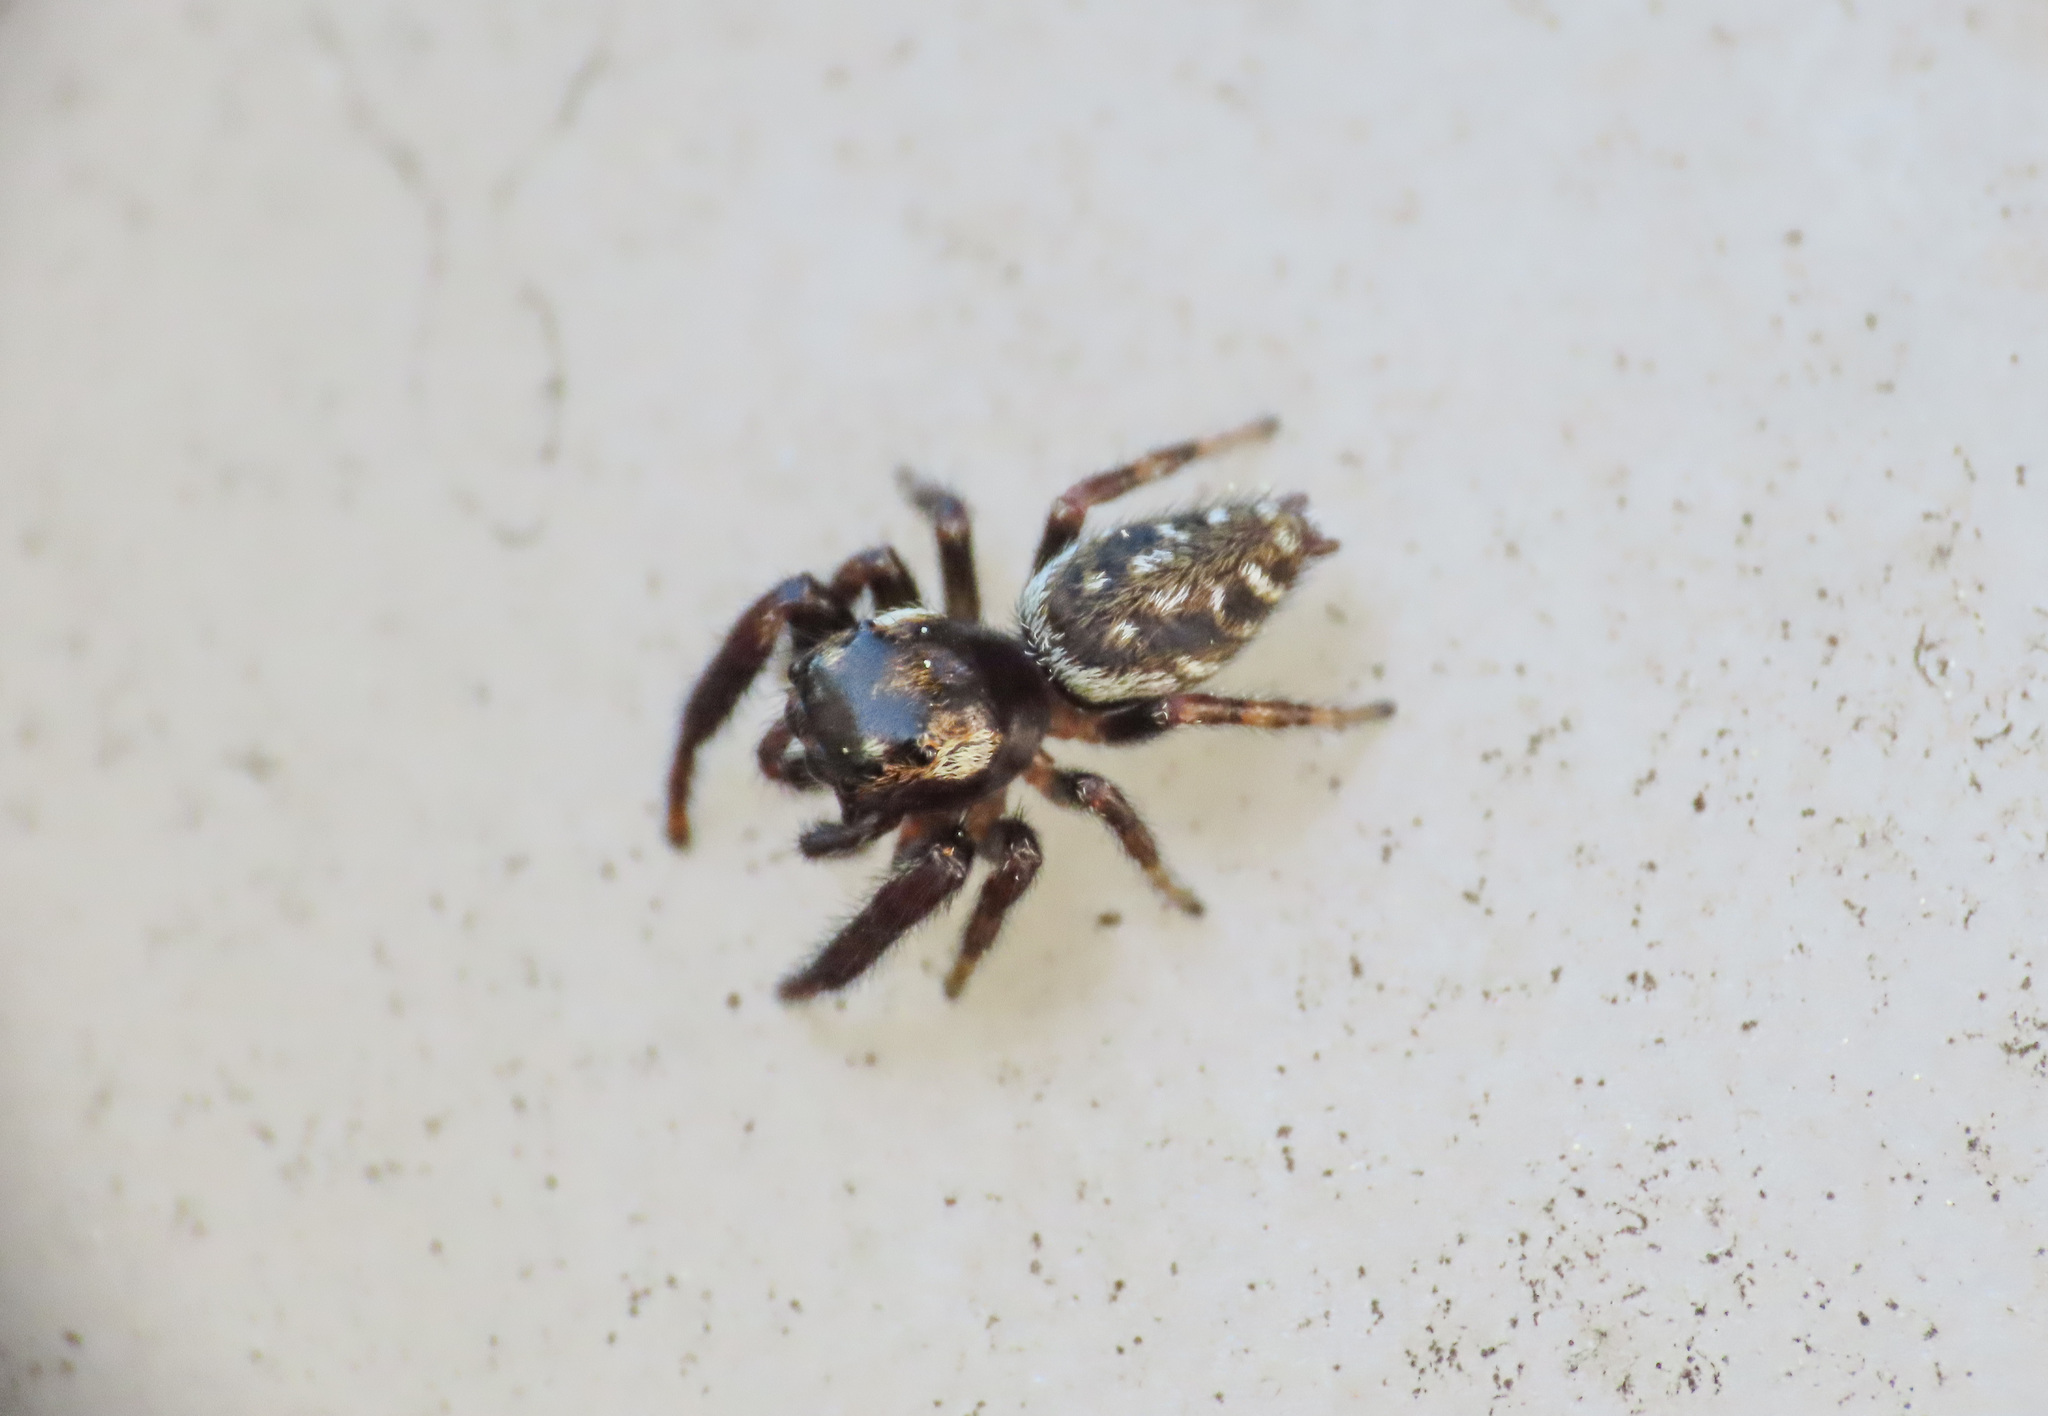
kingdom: Animalia
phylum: Arthropoda
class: Arachnida
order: Araneae
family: Salticidae
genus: Macaroeris
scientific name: Macaroeris nidicolens
